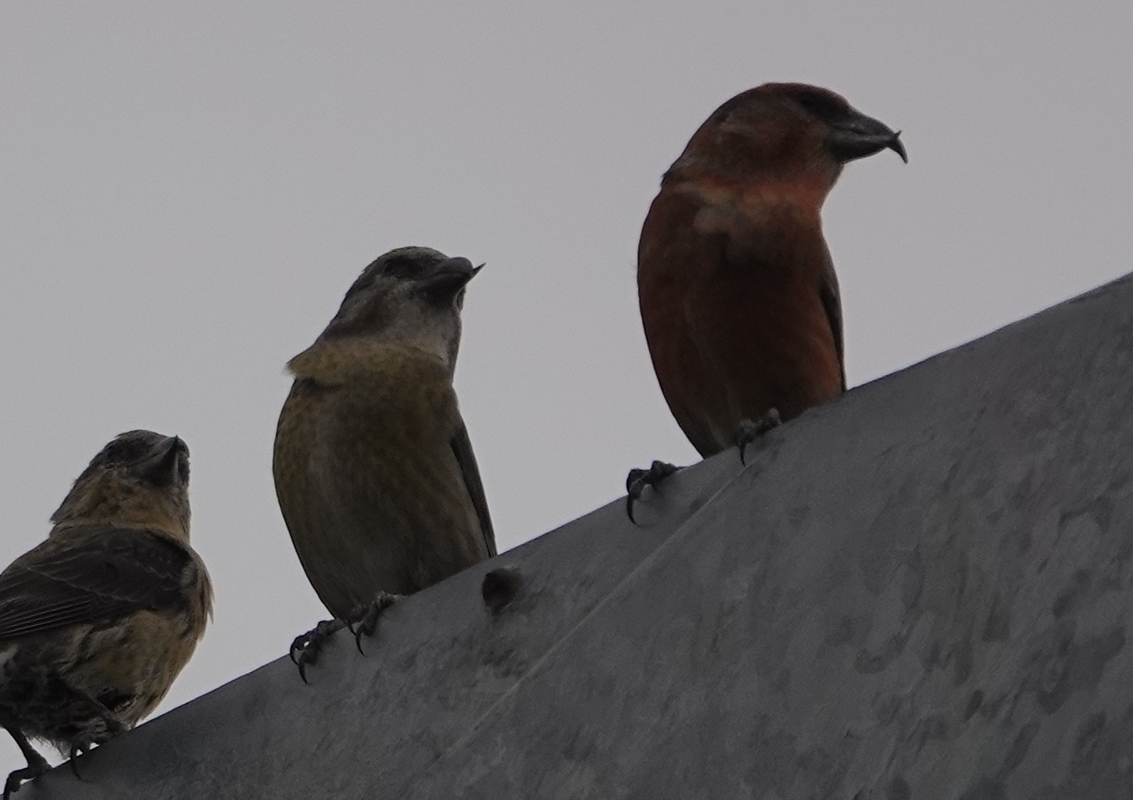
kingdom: Animalia
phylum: Chordata
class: Aves
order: Passeriformes
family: Fringillidae
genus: Loxia
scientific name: Loxia curvirostra
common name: Red crossbill
